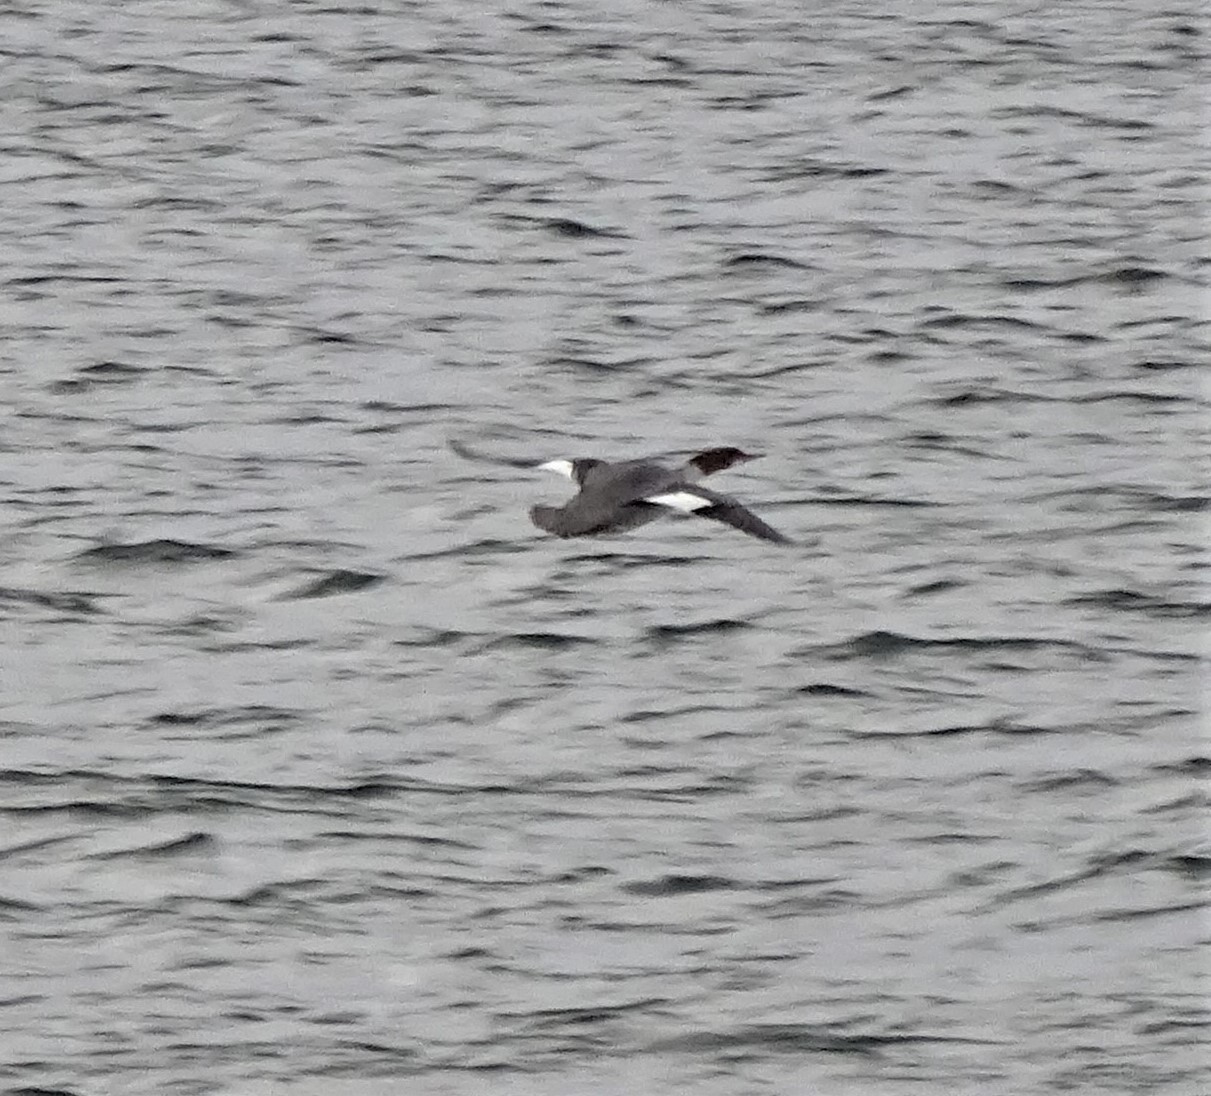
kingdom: Animalia
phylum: Chordata
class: Aves
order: Anseriformes
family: Anatidae
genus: Mergus
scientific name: Mergus merganser
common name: Common merganser
